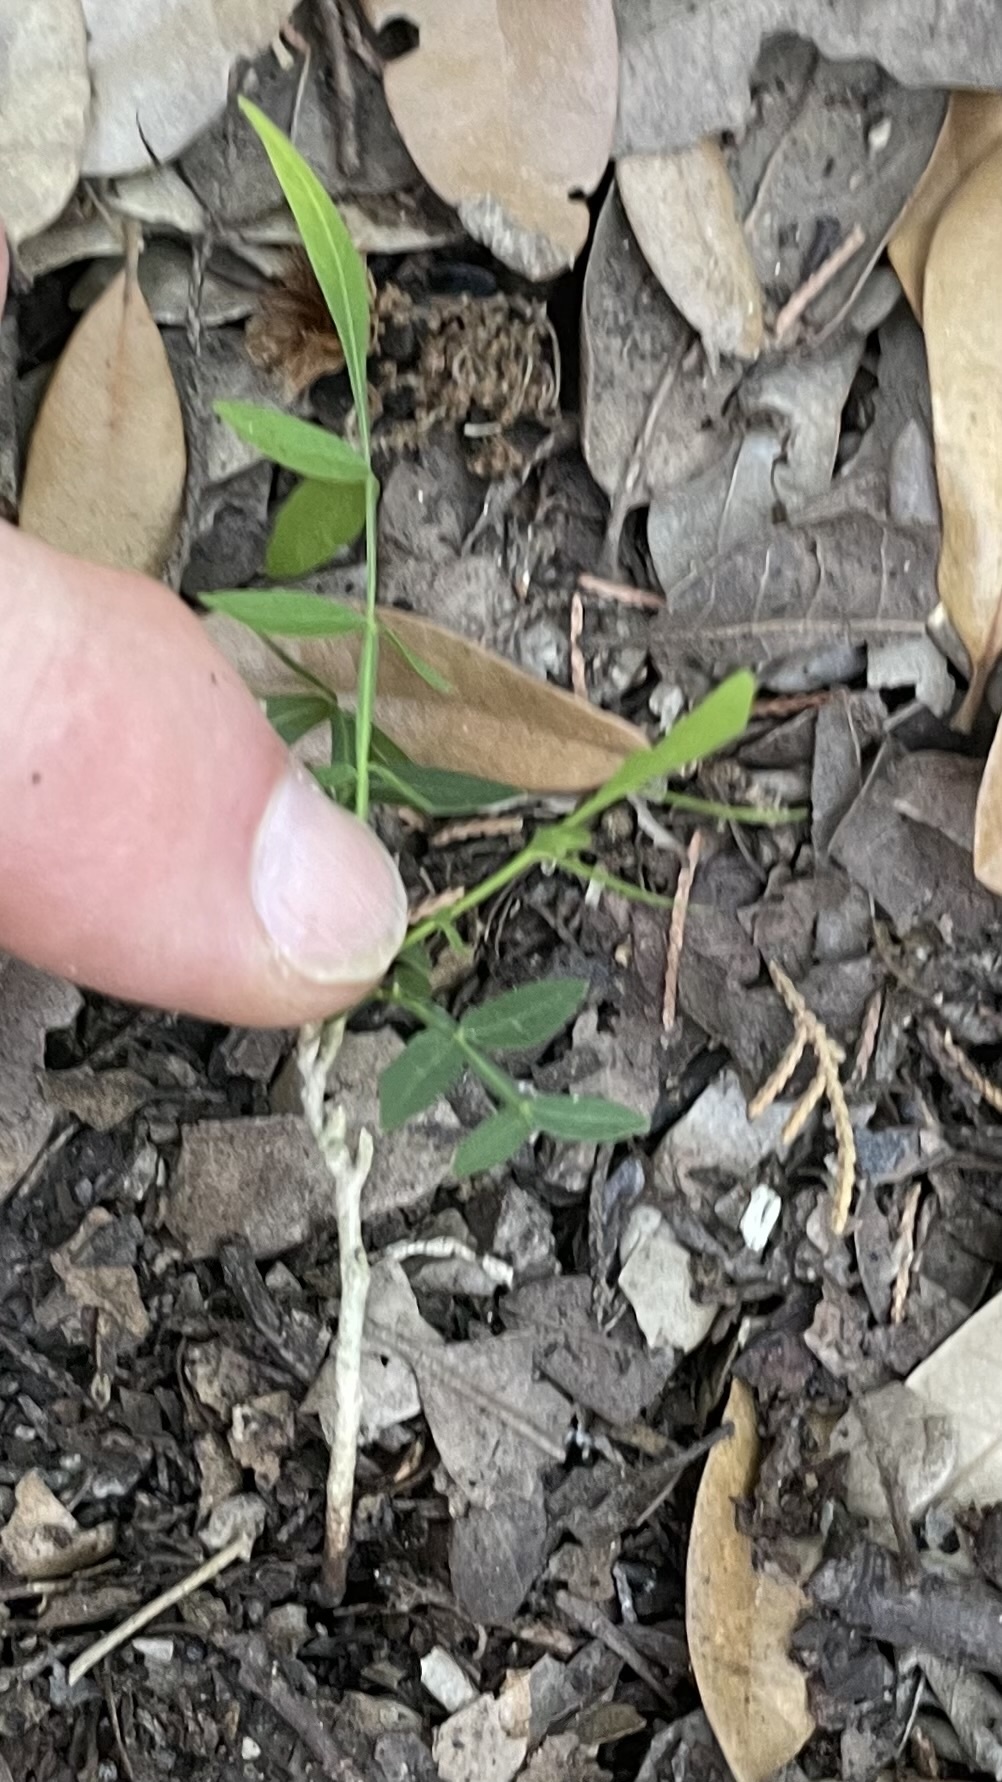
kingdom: Plantae
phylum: Tracheophyta
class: Magnoliopsida
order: Sapindales
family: Sapindaceae
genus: Sapindus
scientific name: Sapindus drummondii
